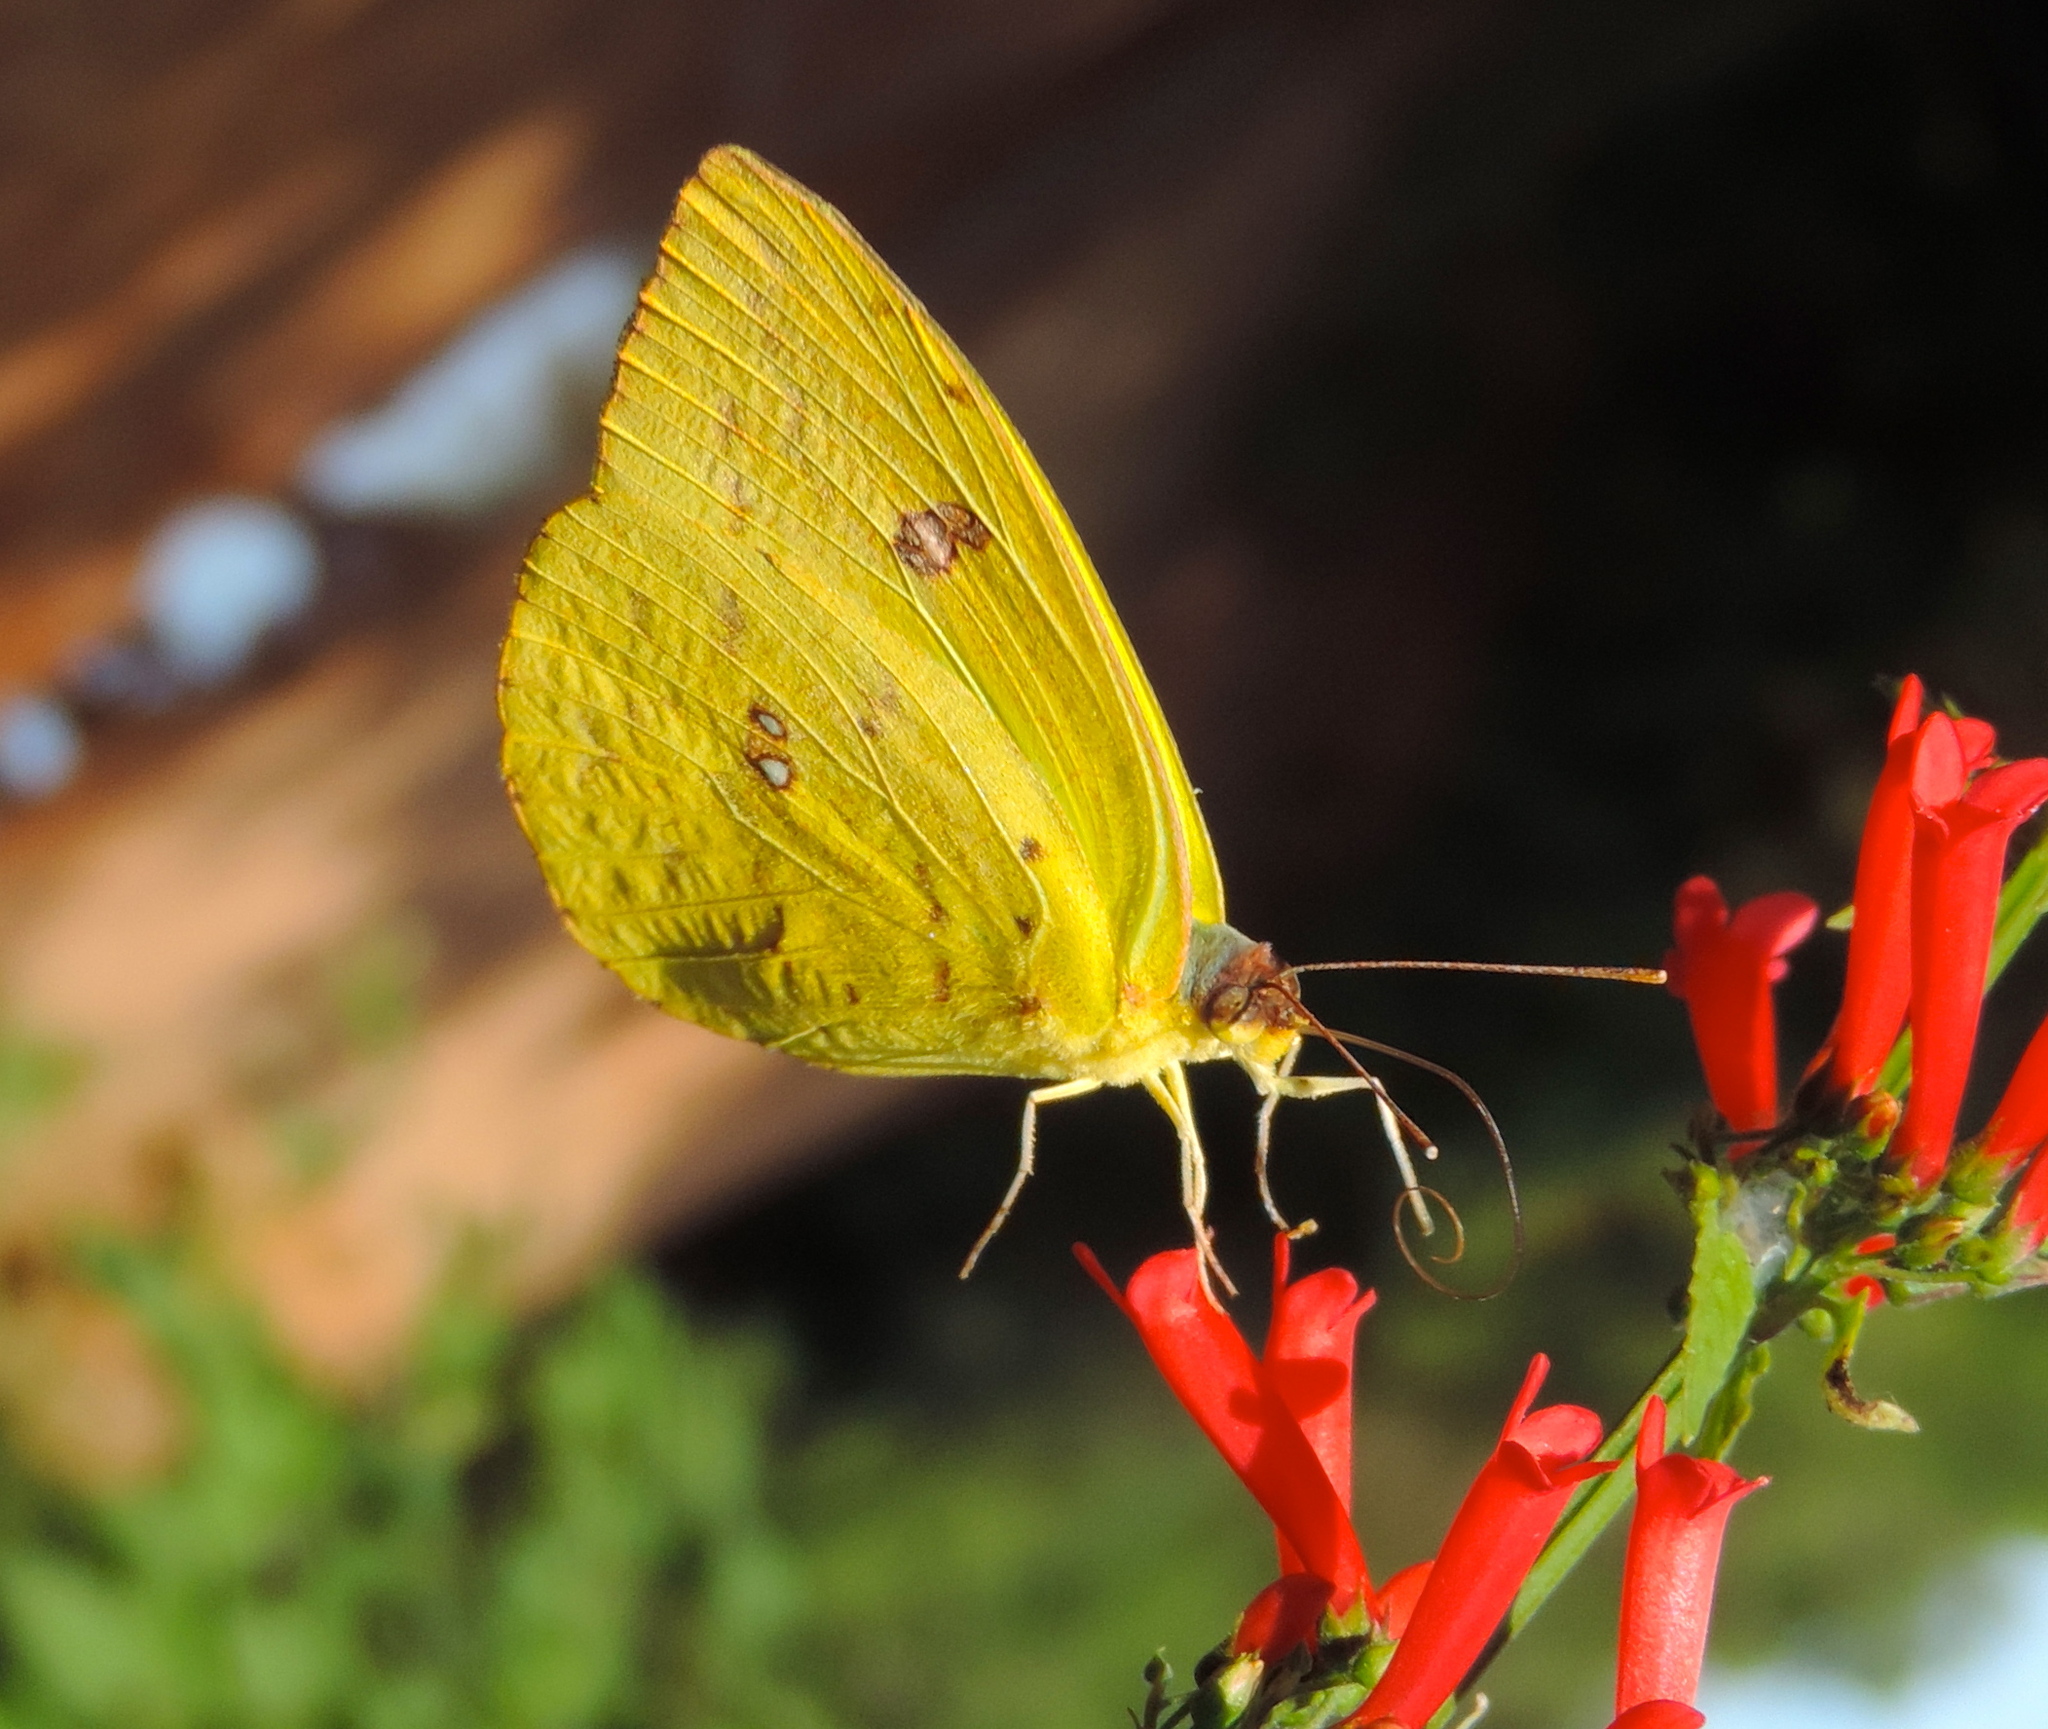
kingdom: Animalia
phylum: Arthropoda
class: Insecta
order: Lepidoptera
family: Pieridae
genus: Phoebis
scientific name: Phoebis argante
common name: Apricot sulphur
